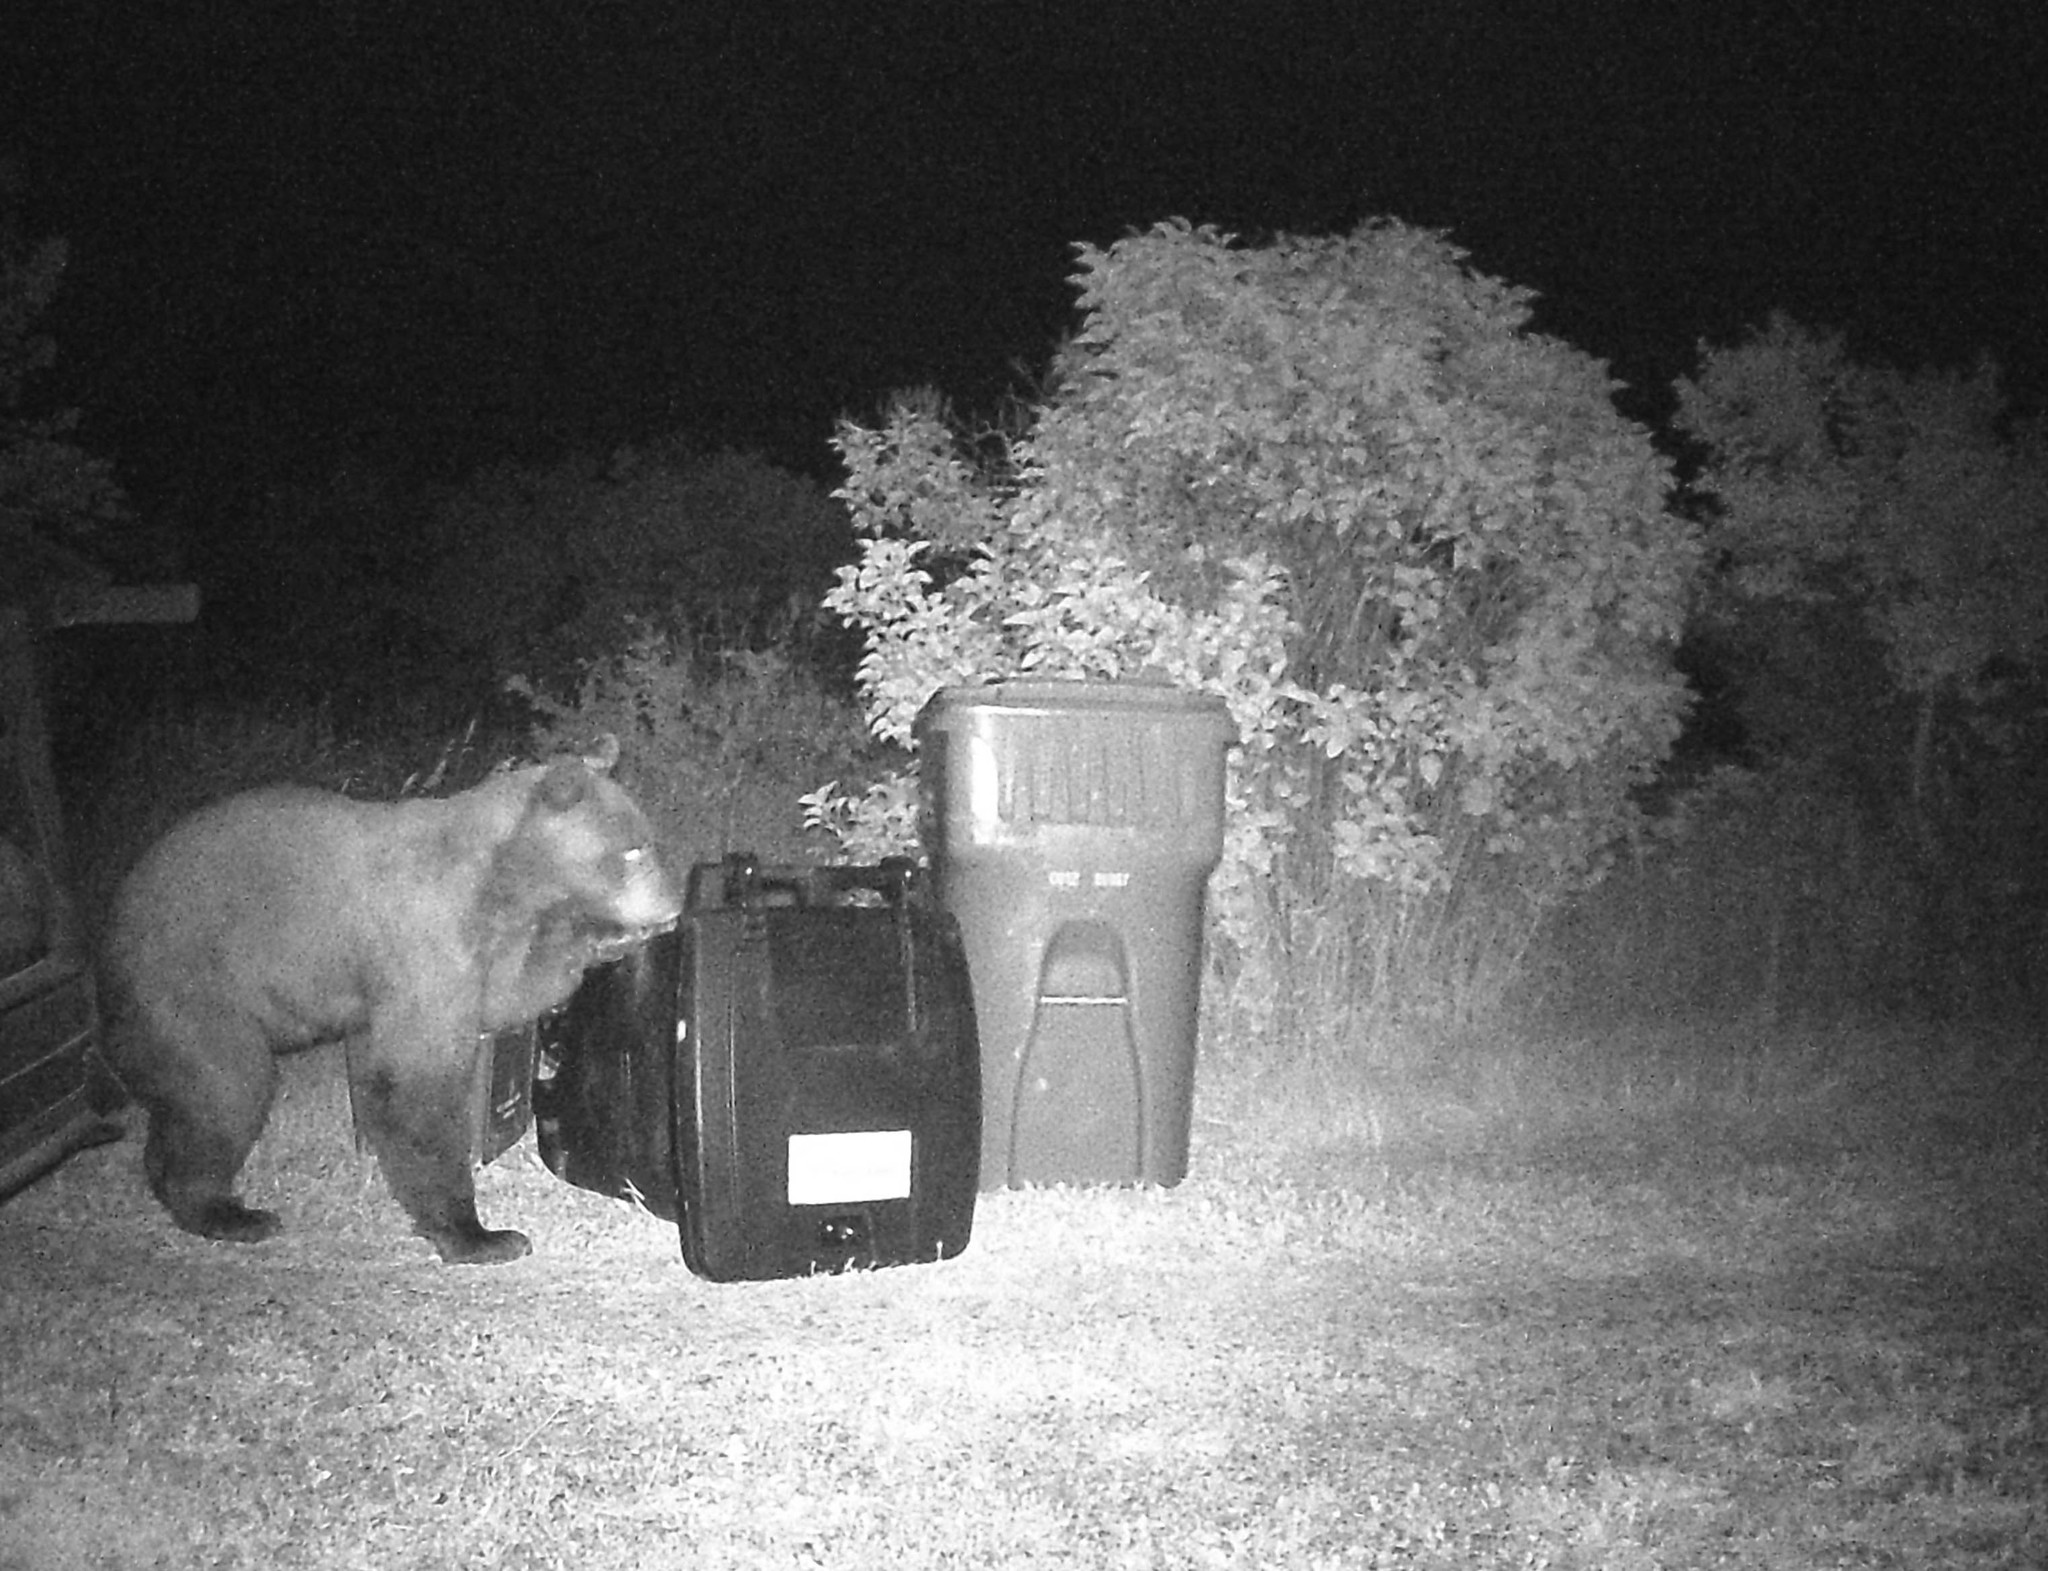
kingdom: Animalia
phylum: Chordata
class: Mammalia
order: Carnivora
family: Ursidae
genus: Ursus
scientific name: Ursus americanus
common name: American black bear
